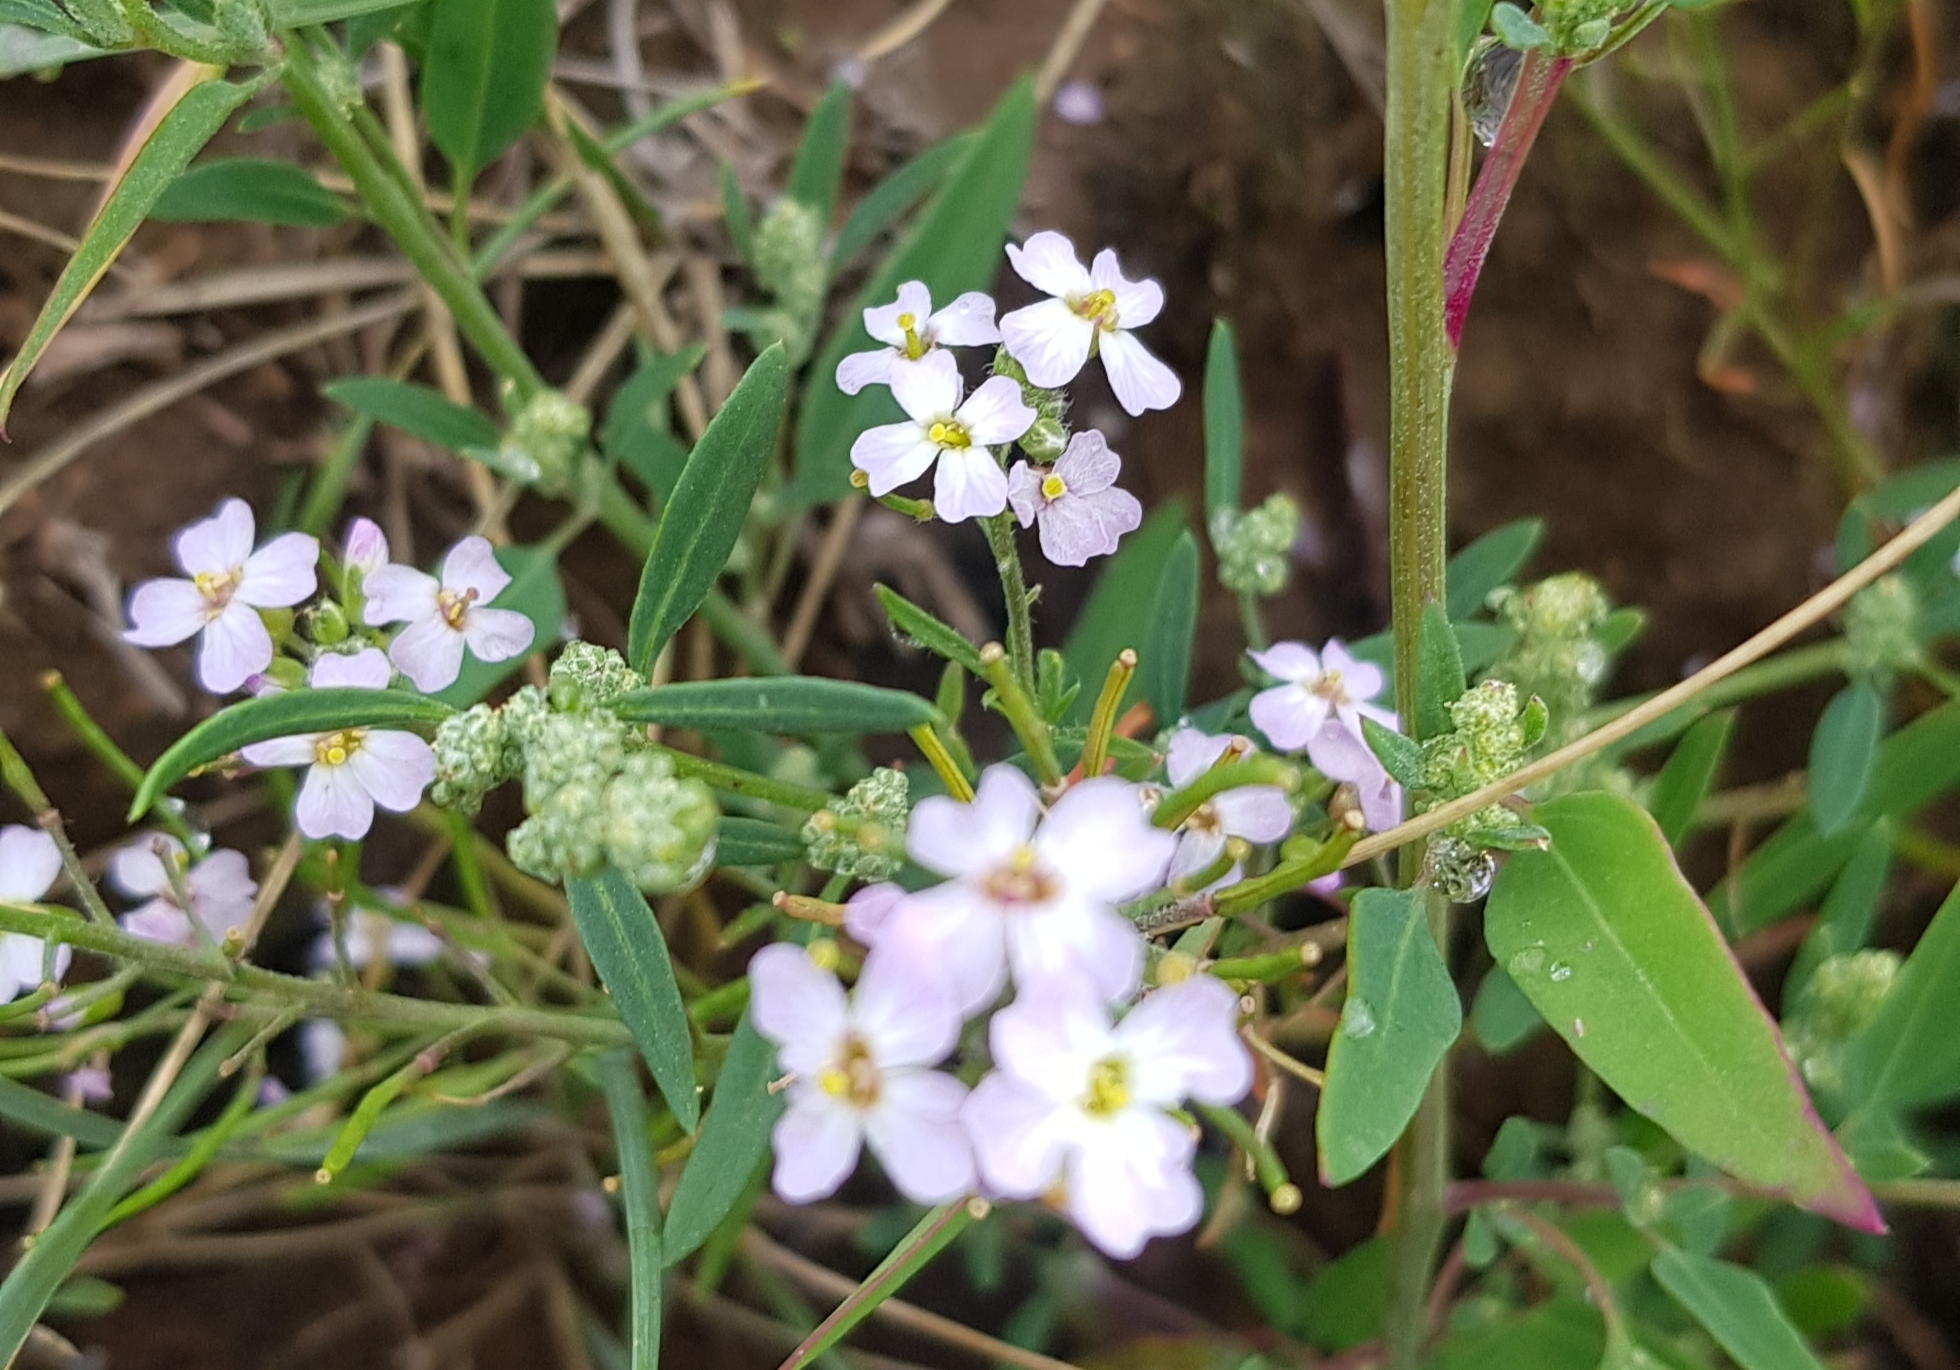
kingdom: Plantae
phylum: Tracheophyta
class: Magnoliopsida
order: Brassicales
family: Brassicaceae
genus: Dontostemon
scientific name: Dontostemon integrifolius
